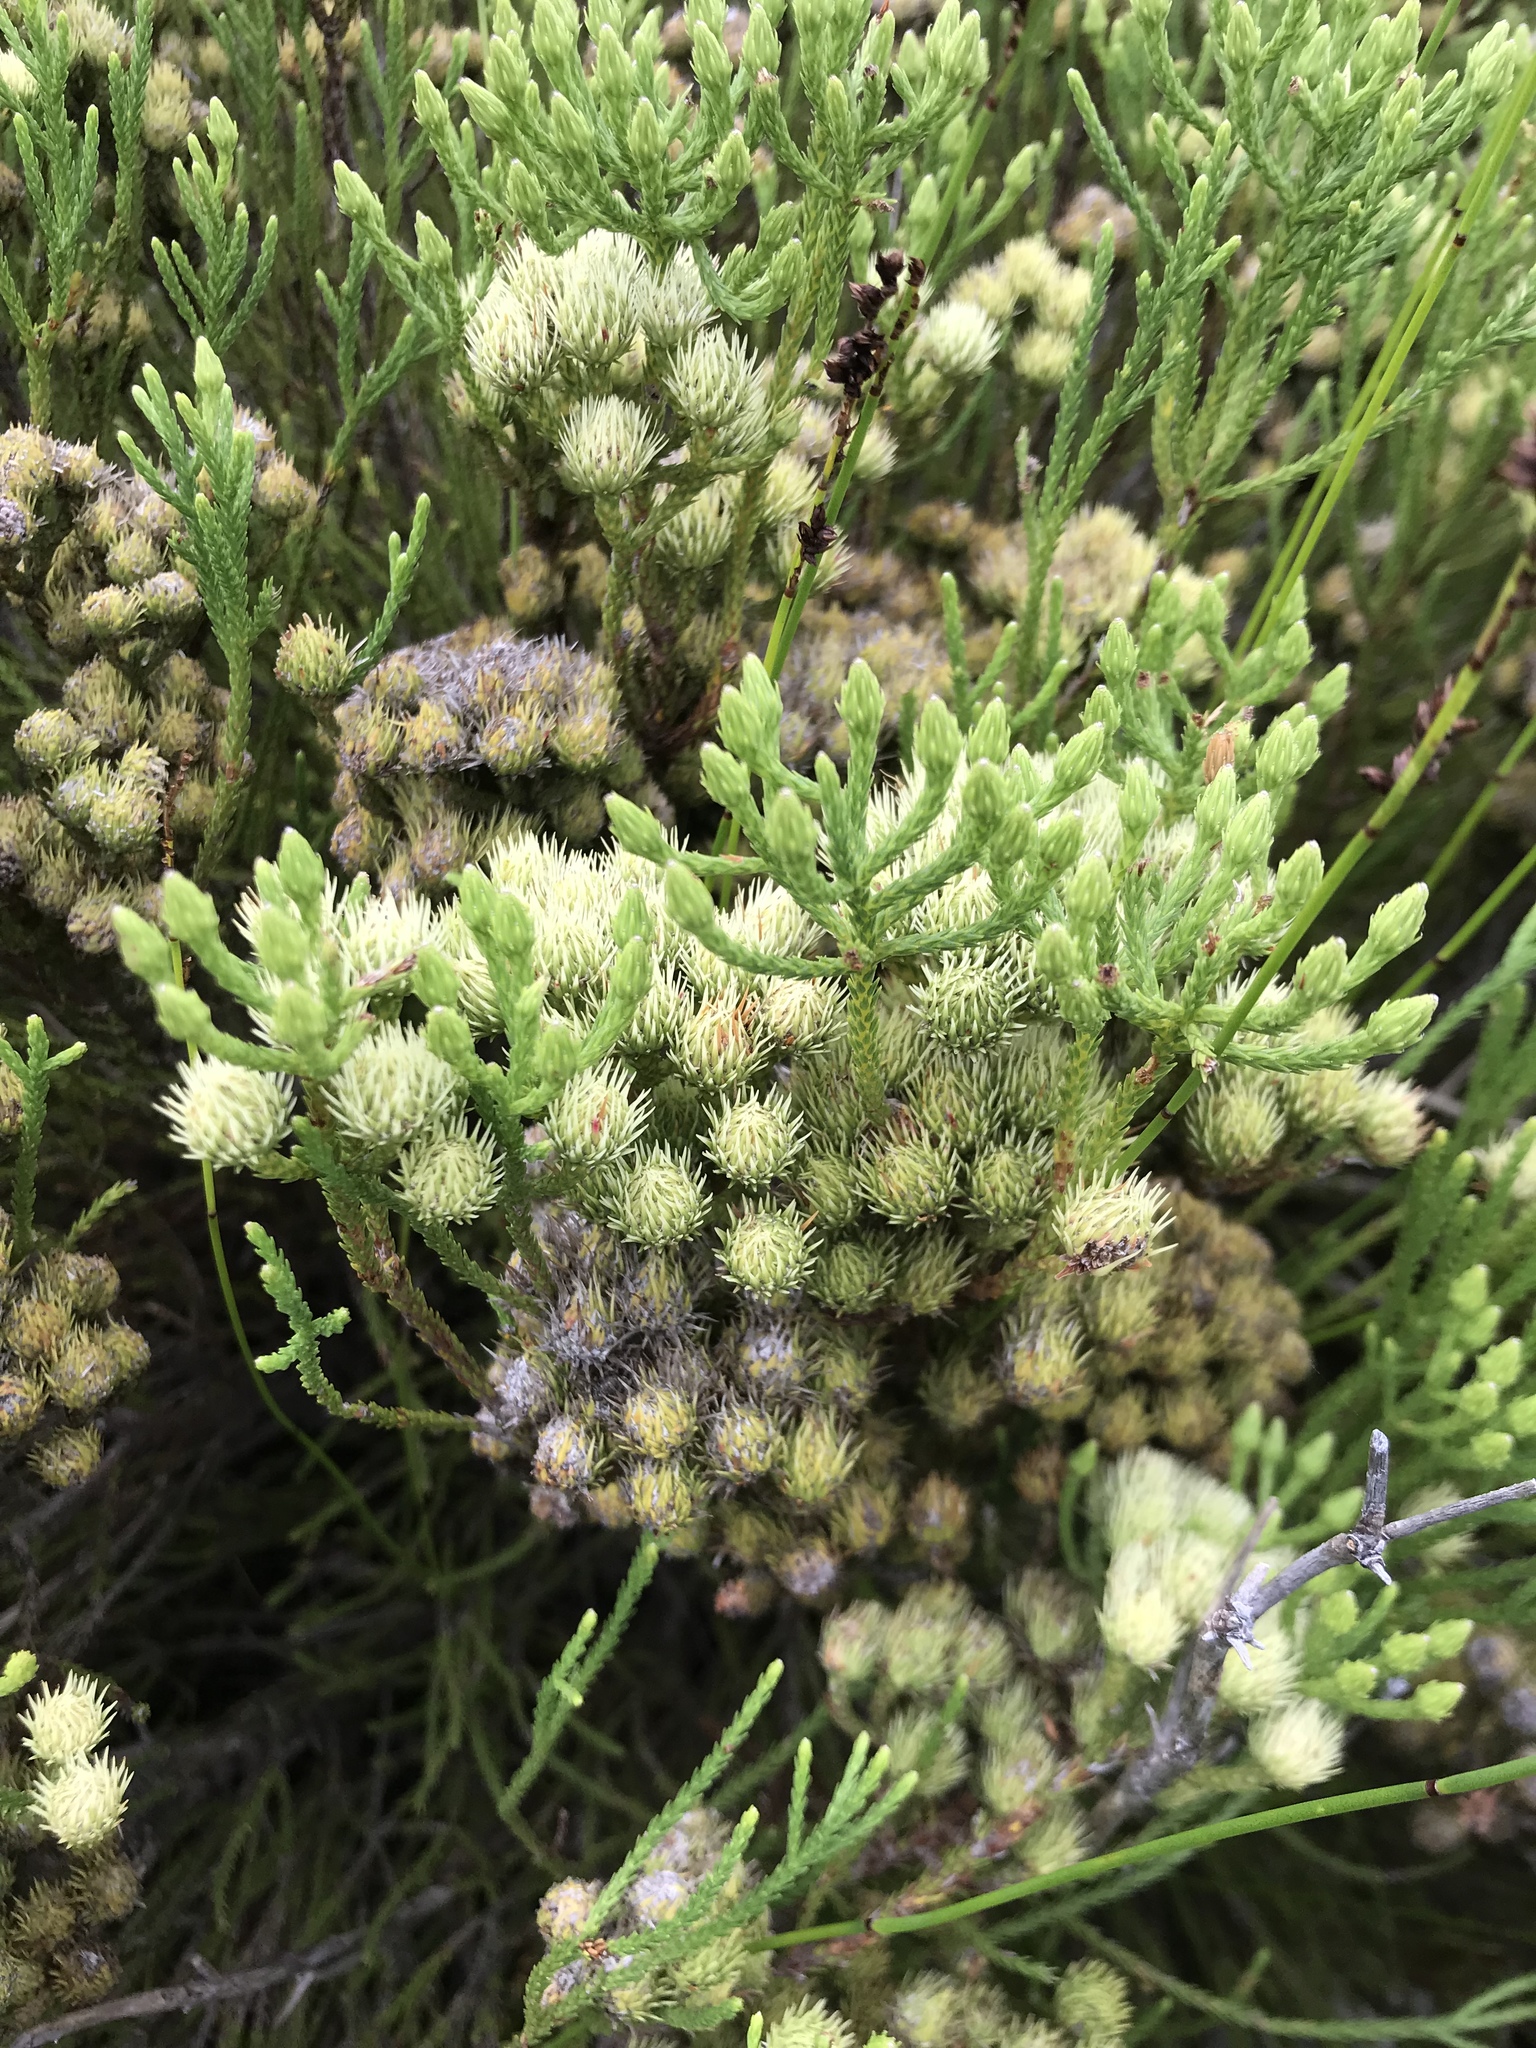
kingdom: Plantae
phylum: Tracheophyta
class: Magnoliopsida
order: Bruniales
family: Bruniaceae
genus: Brunia
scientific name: Brunia paleacea
